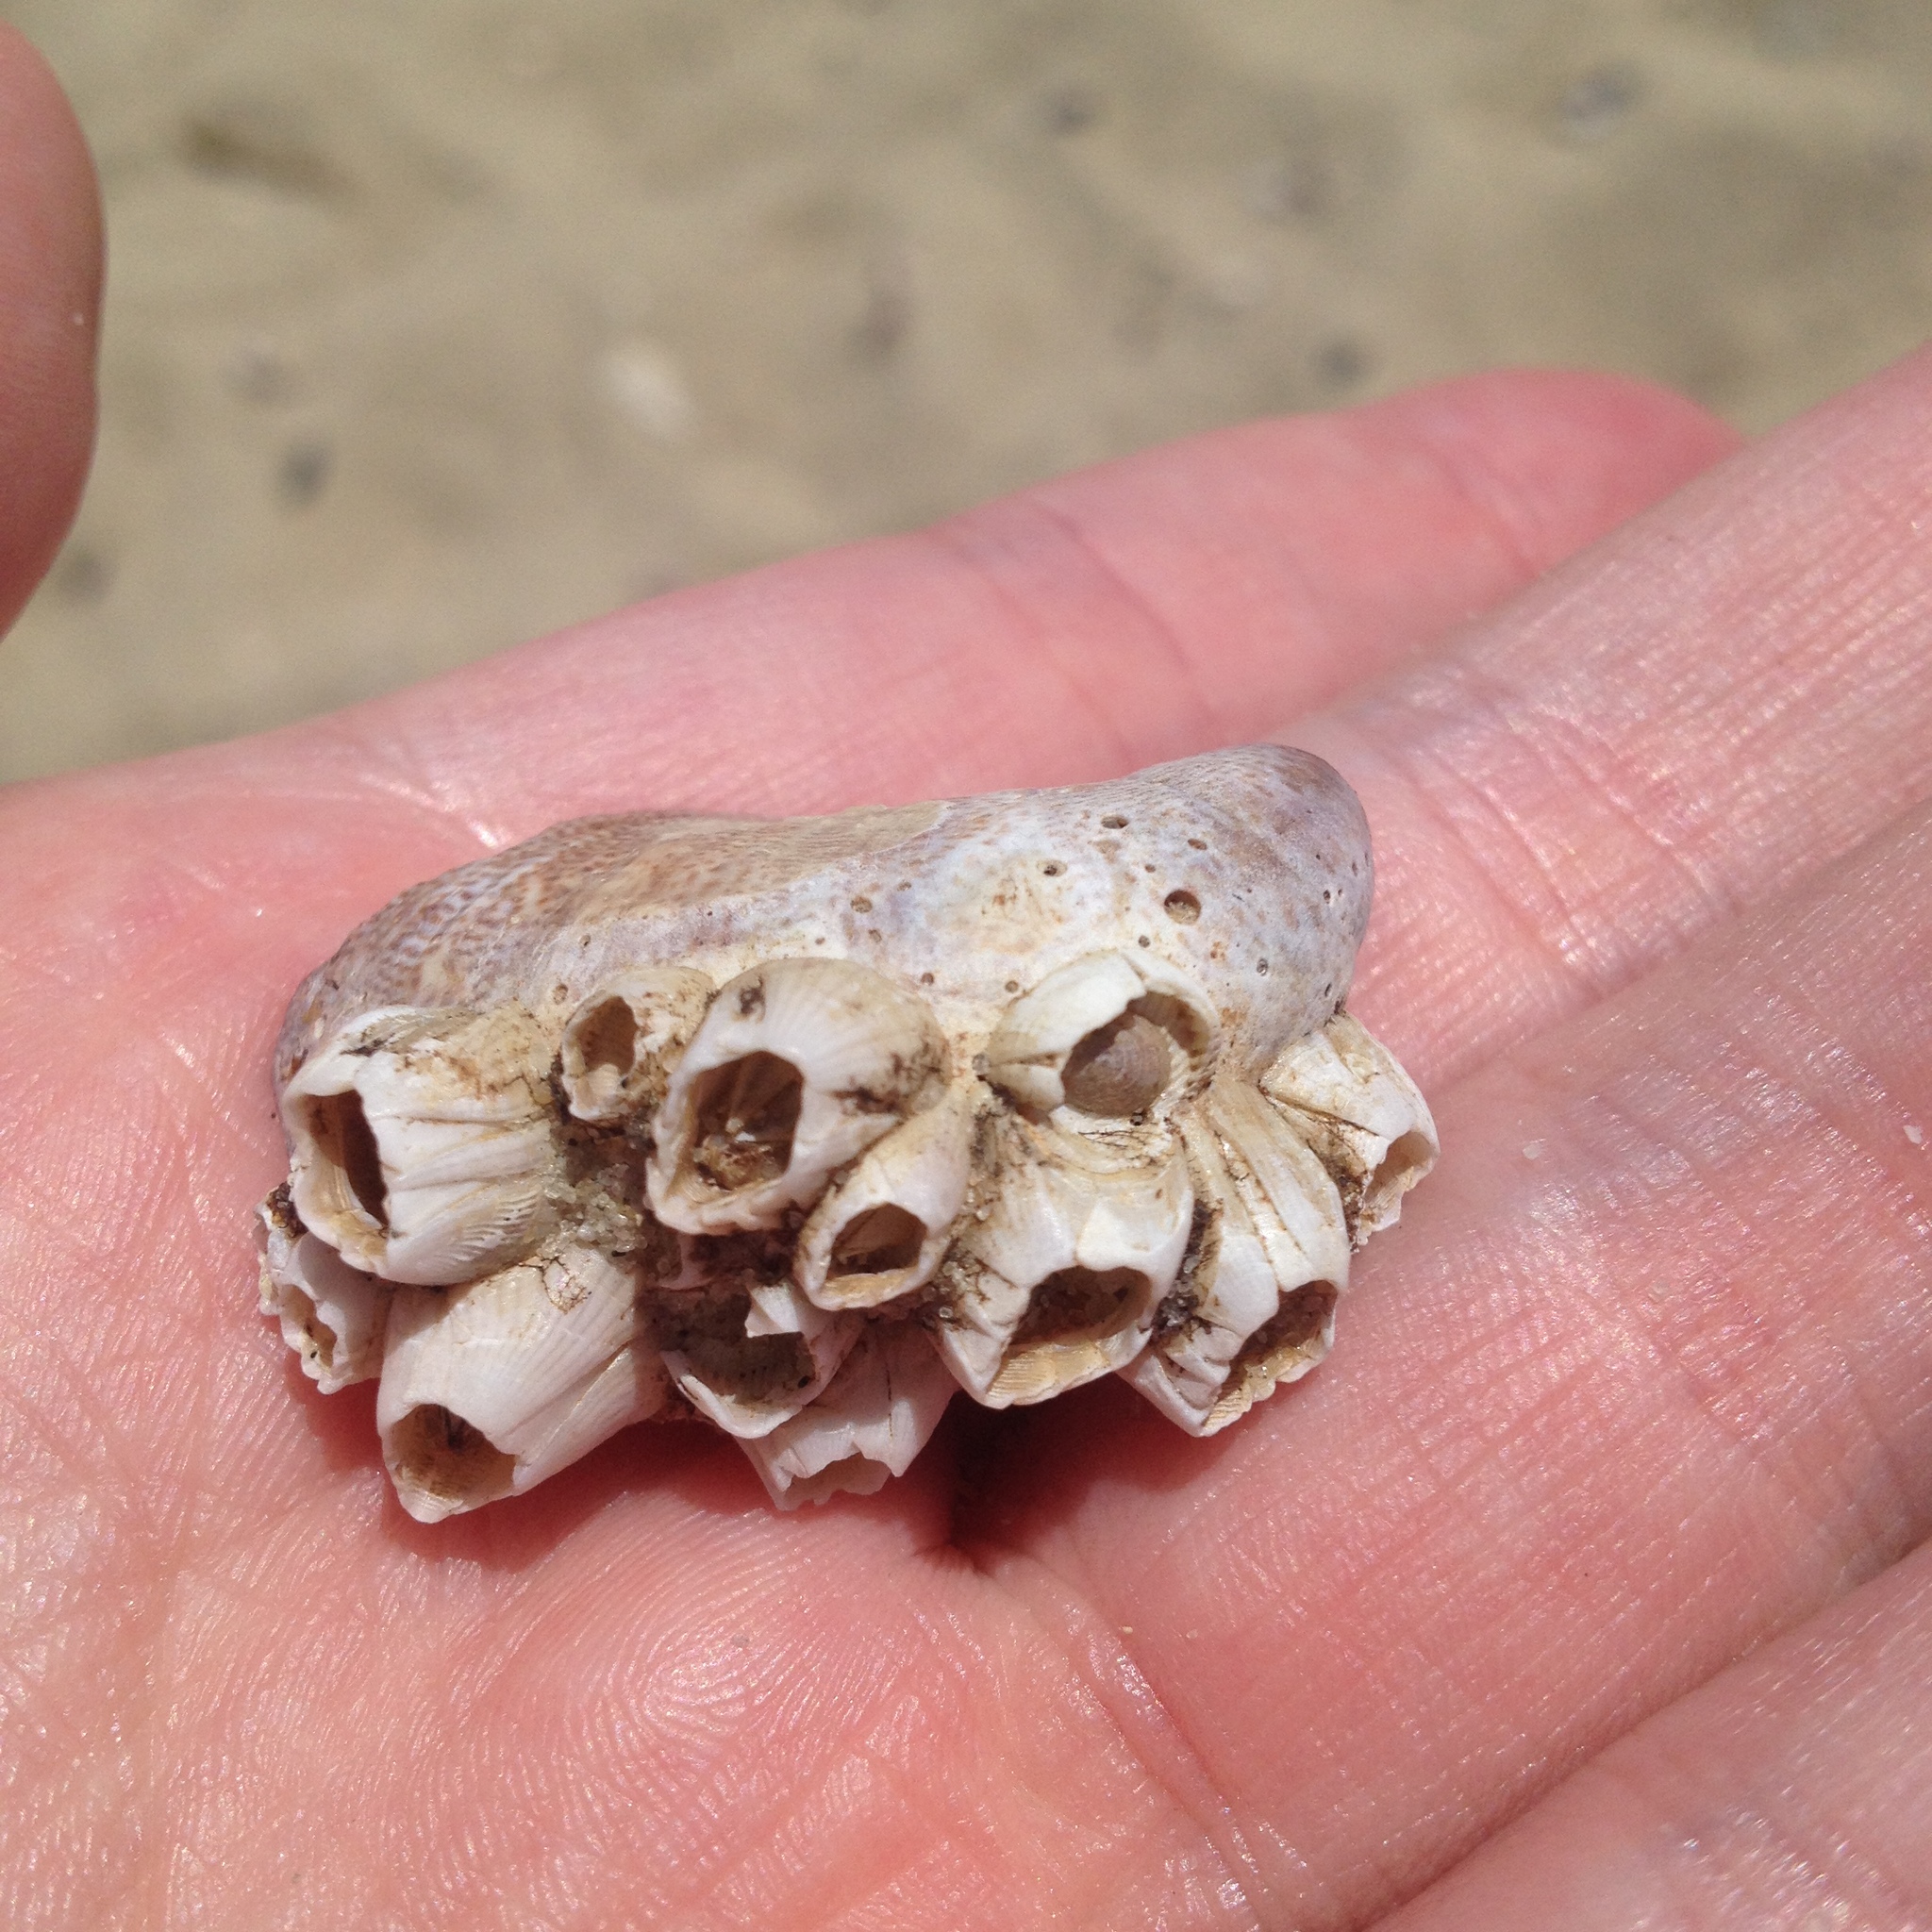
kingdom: Animalia
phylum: Arthropoda
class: Maxillopoda
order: Sessilia
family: Balanidae
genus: Amphibalanus
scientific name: Amphibalanus
